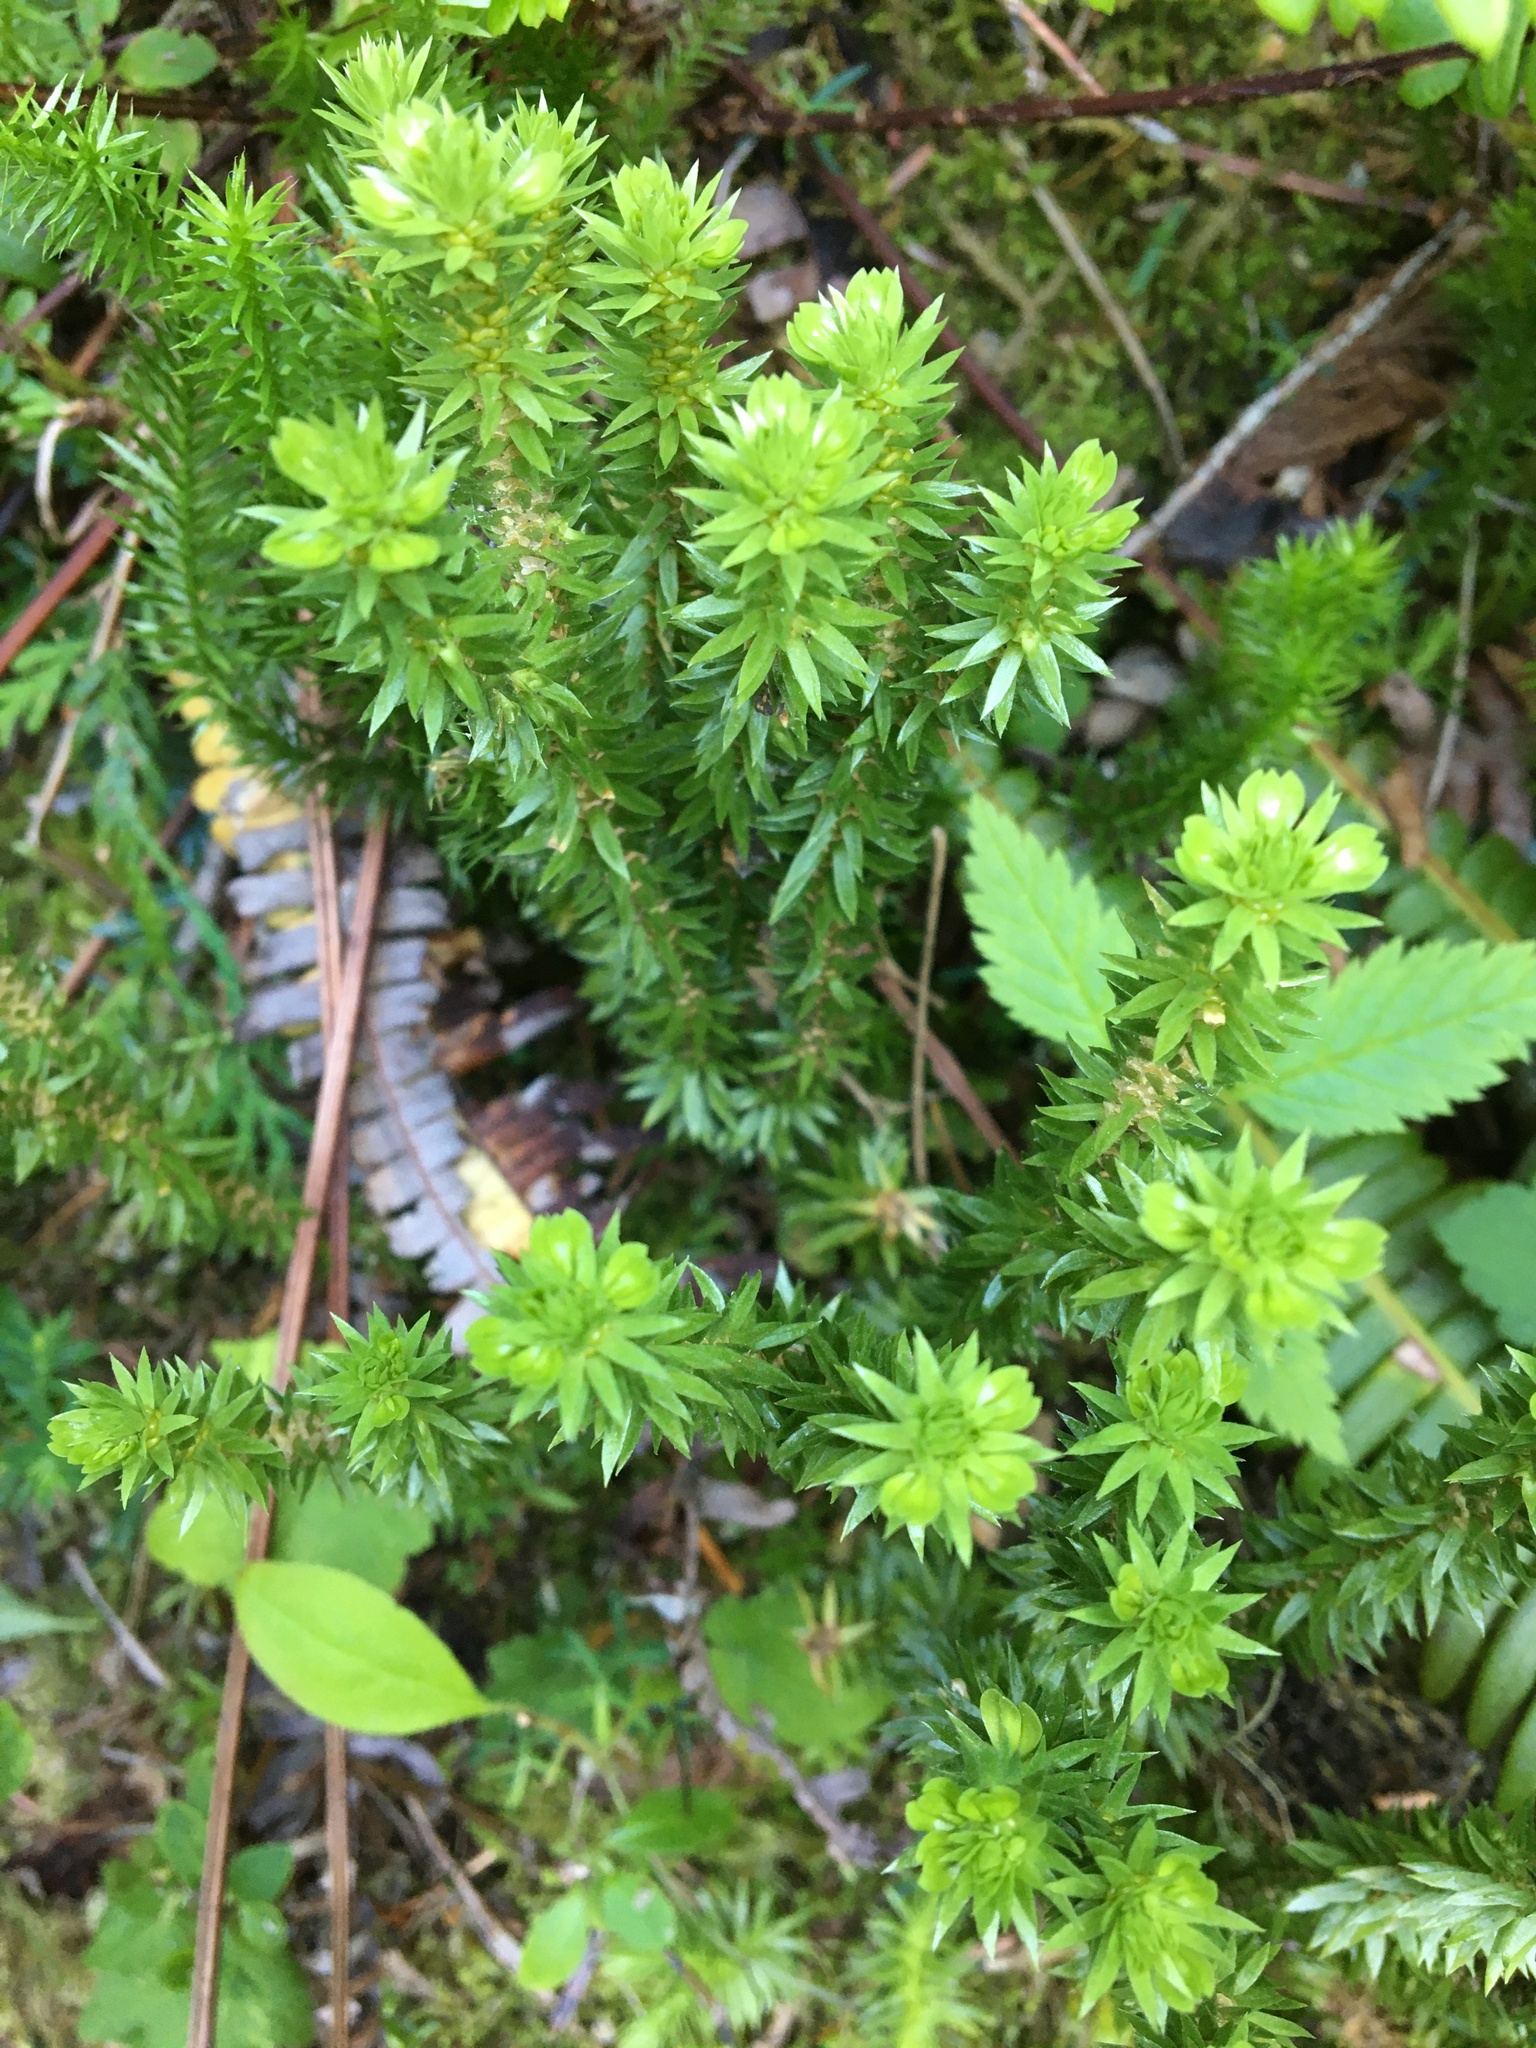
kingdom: Plantae
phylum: Tracheophyta
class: Lycopodiopsida
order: Lycopodiales
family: Lycopodiaceae
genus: Huperzia
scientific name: Huperzia occidentalis
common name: Western clubmoss
